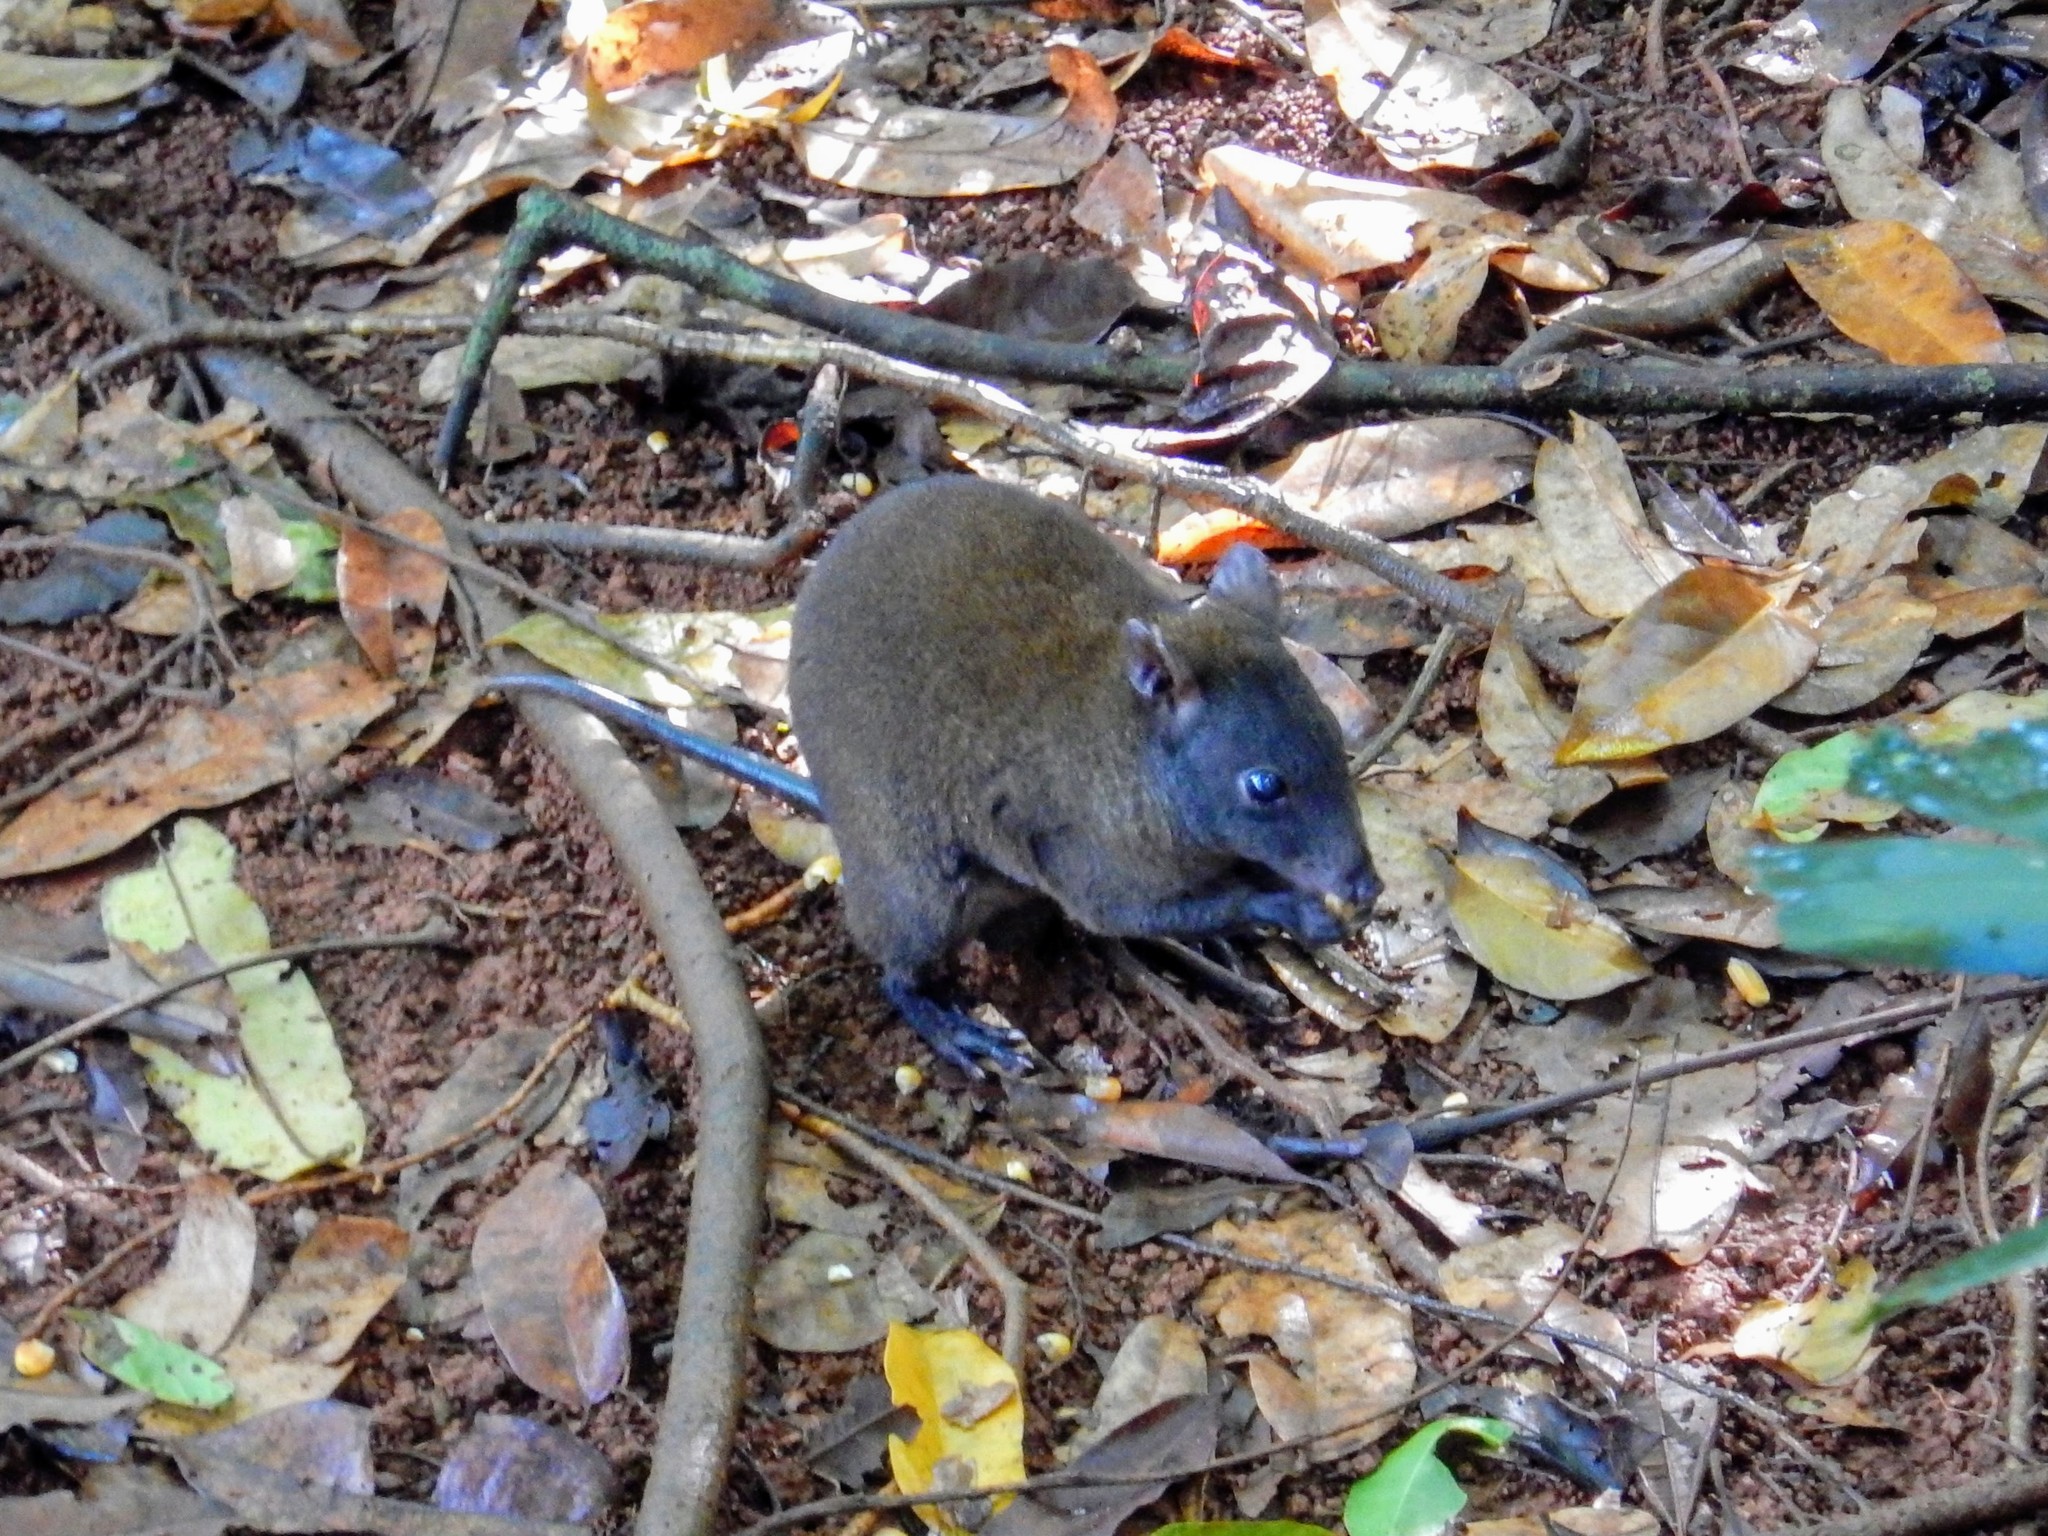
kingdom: Animalia
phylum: Chordata
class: Mammalia
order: Diprotodontia
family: Hypsiprymnodontidae
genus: Hypsiprymnodon
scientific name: Hypsiprymnodon moschatus
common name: Musky rat-kangaroo
